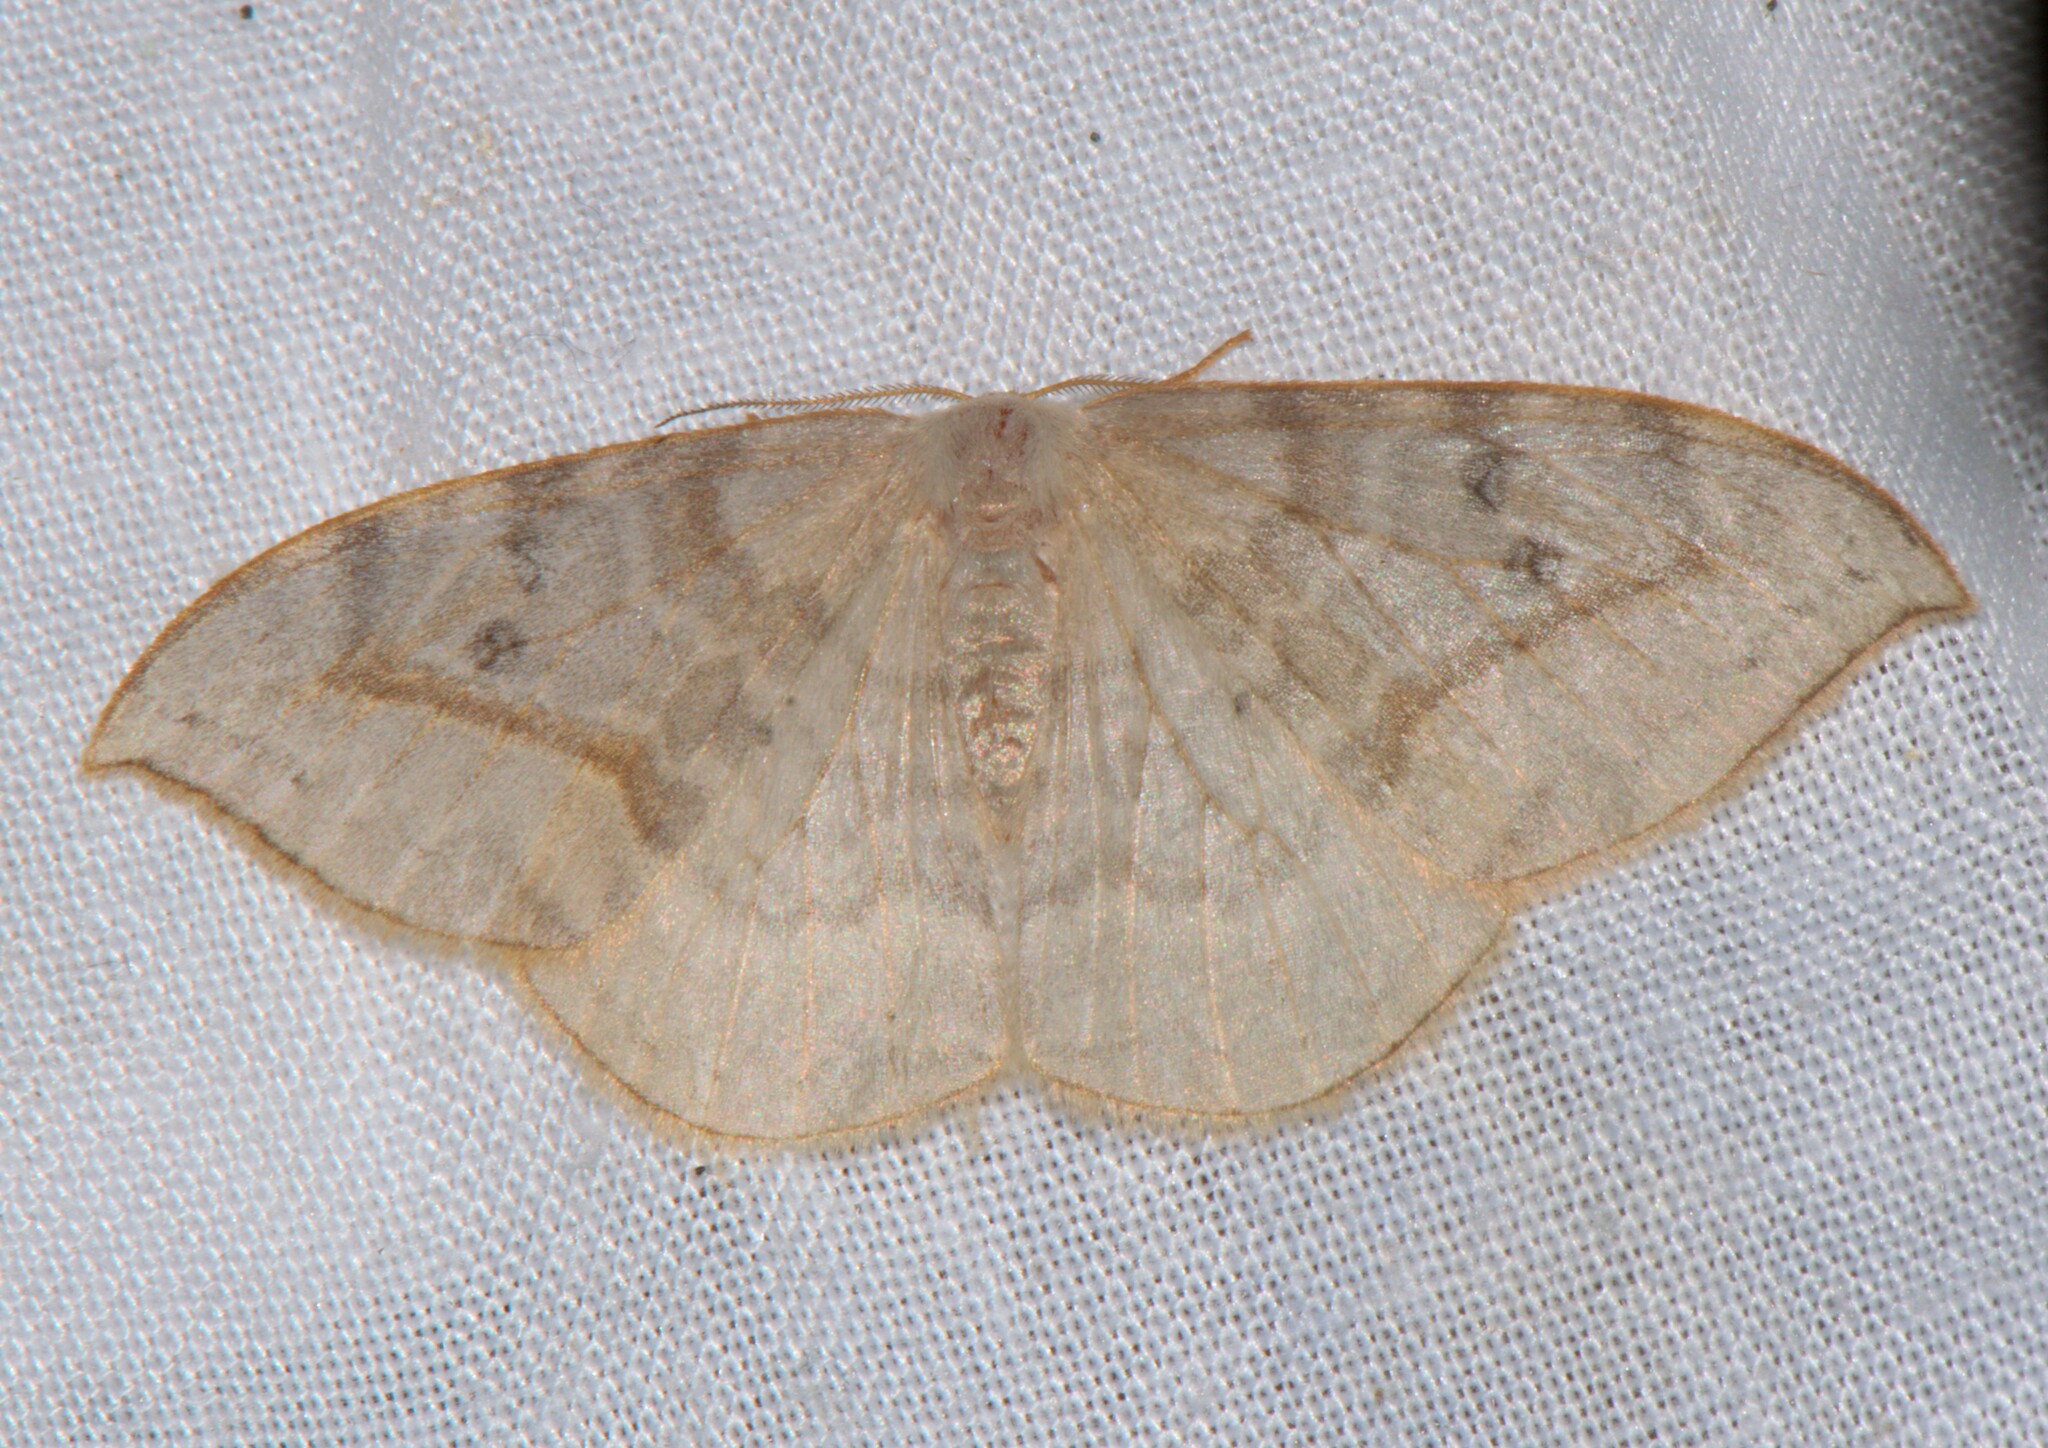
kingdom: Animalia
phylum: Arthropoda
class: Insecta
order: Lepidoptera
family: Drepanidae
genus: Drepana
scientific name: Drepana pallida
